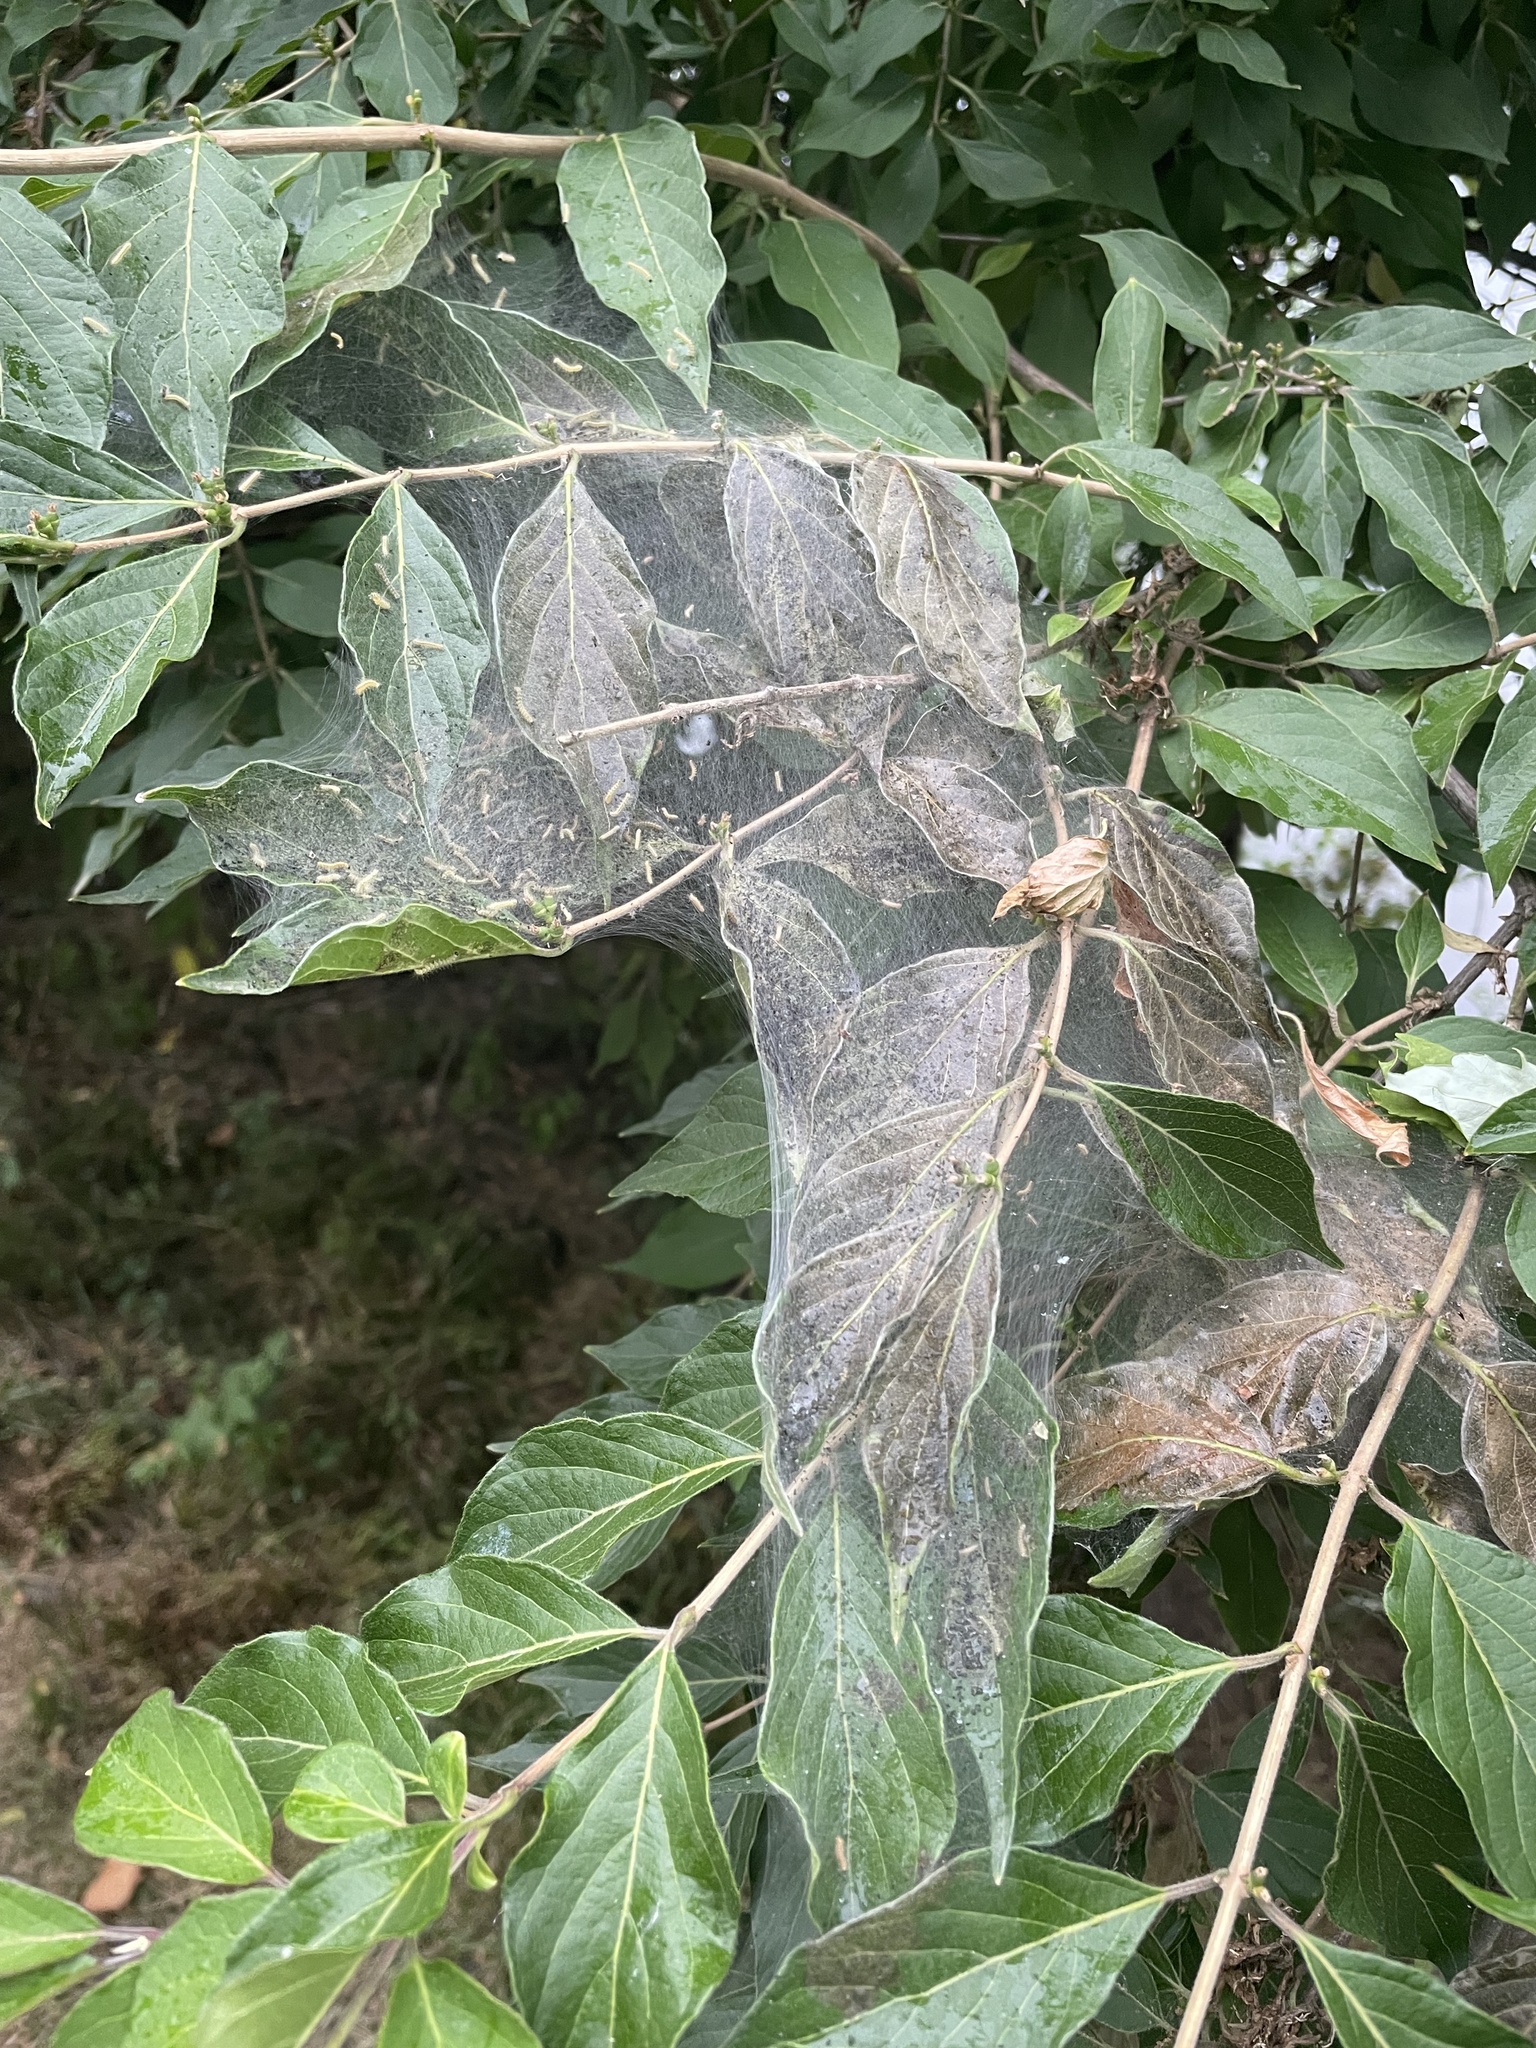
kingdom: Animalia
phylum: Arthropoda
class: Insecta
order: Lepidoptera
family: Erebidae
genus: Hyphantria
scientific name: Hyphantria cunea
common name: American white moth
